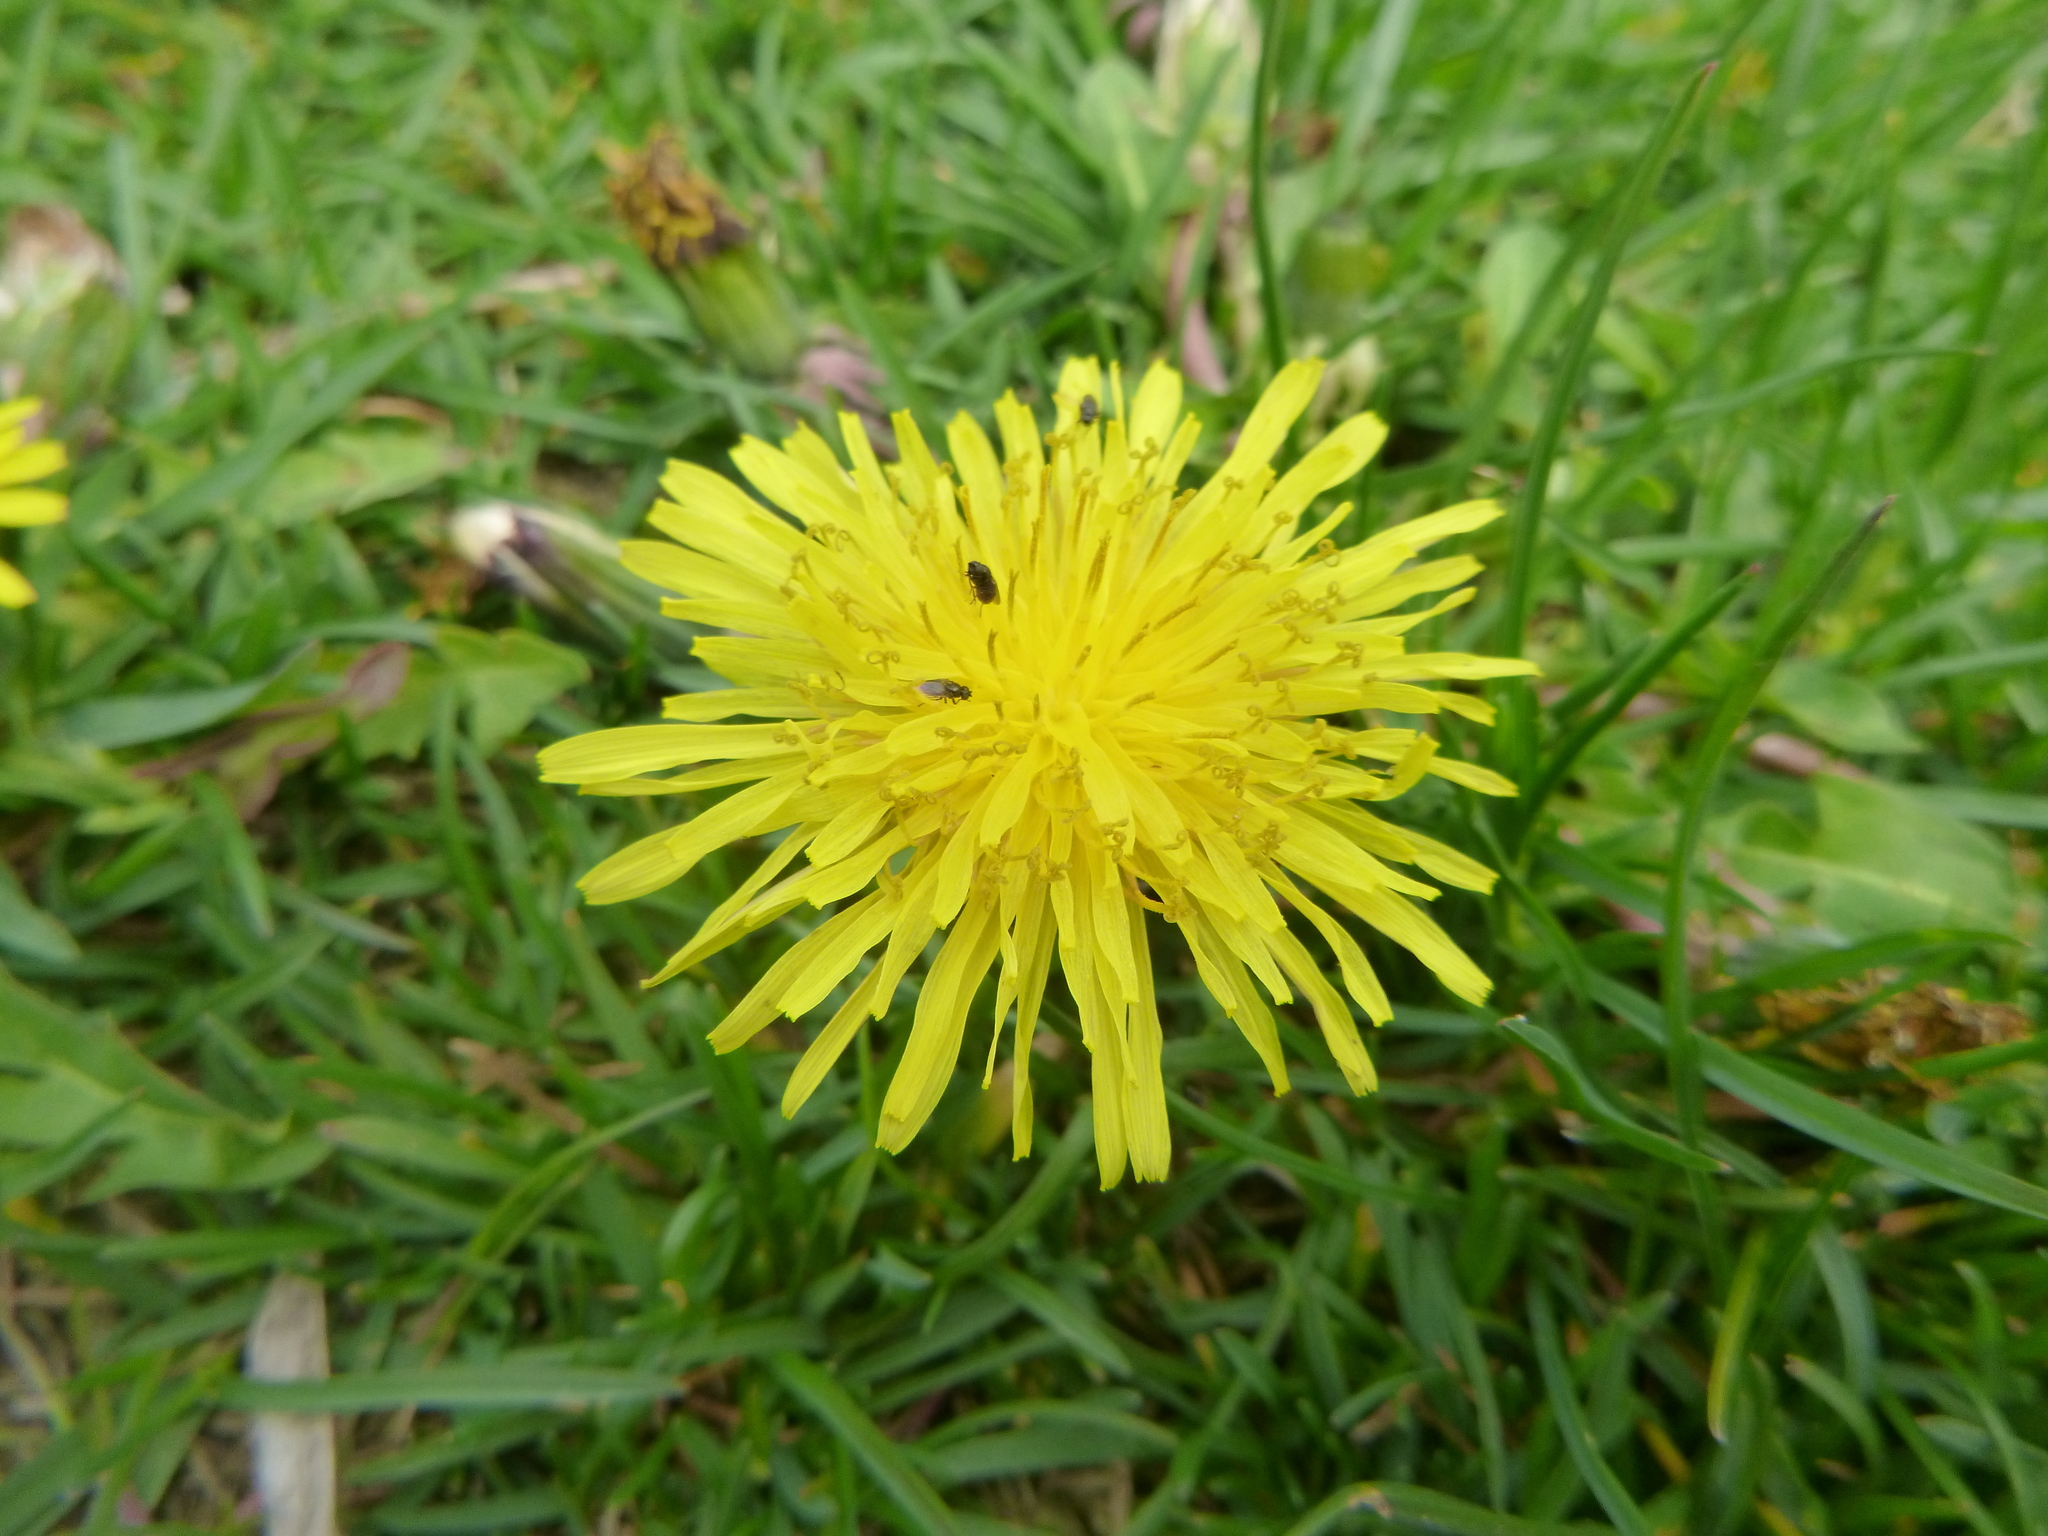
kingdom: Plantae
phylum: Tracheophyta
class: Magnoliopsida
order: Asterales
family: Asteraceae
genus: Taraxacum
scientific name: Taraxacum officinale
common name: Common dandelion
